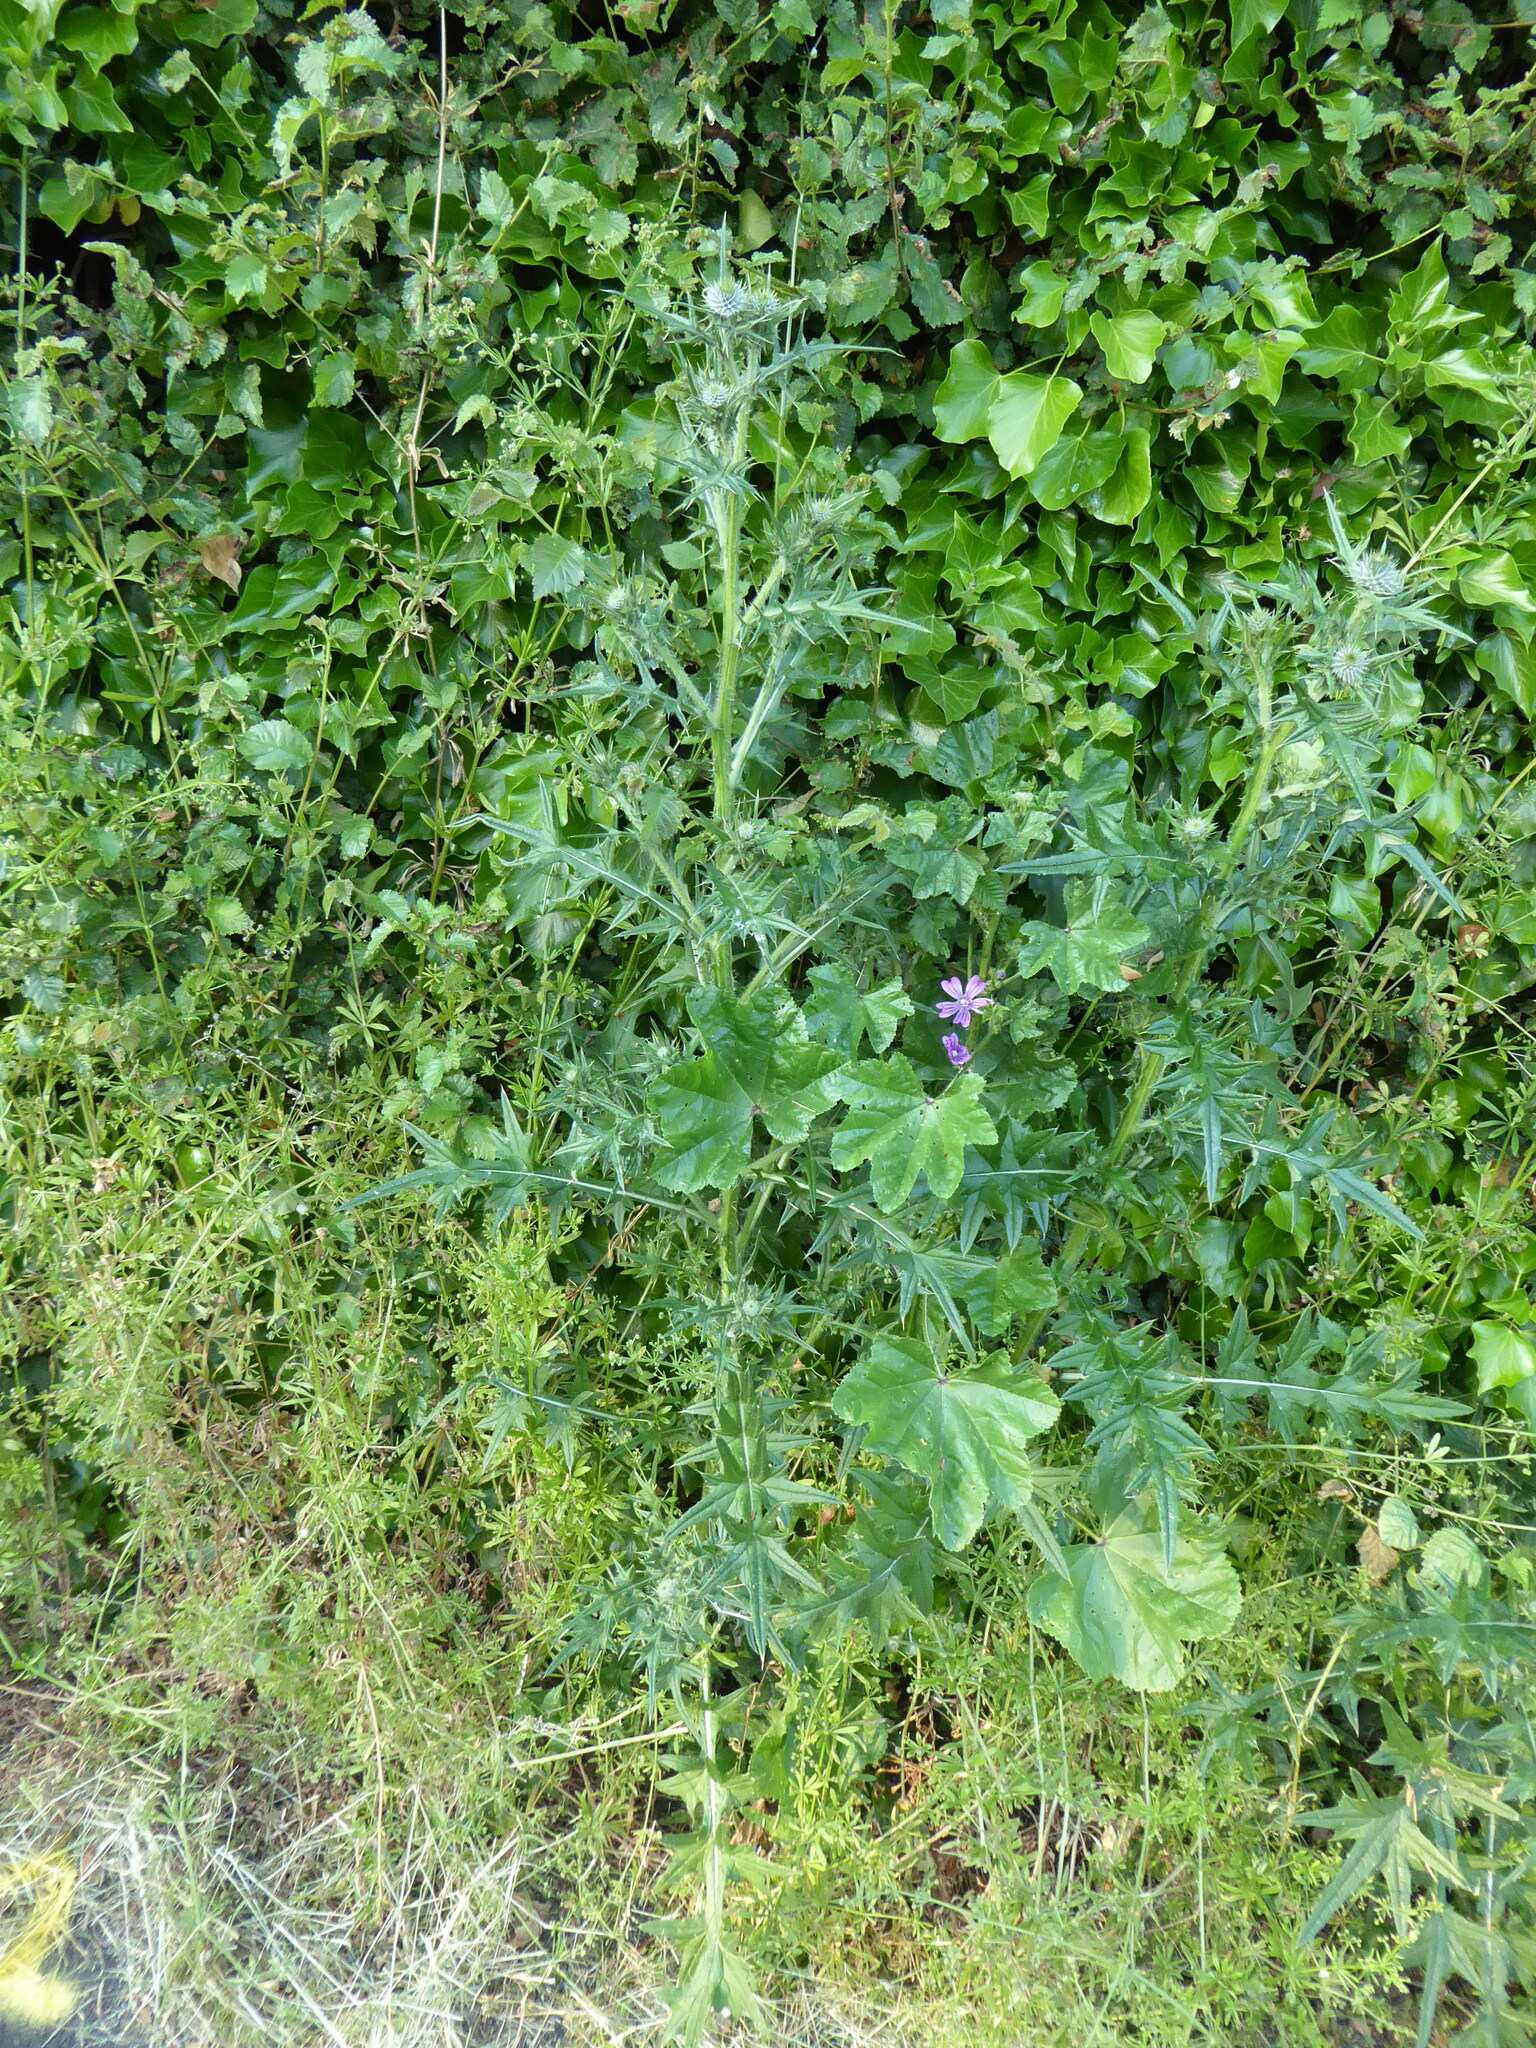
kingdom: Plantae
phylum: Tracheophyta
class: Magnoliopsida
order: Asterales
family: Asteraceae
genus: Cirsium
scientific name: Cirsium vulgare
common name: Bull thistle
